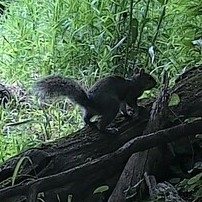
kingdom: Animalia
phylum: Chordata
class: Mammalia
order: Rodentia
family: Sciuridae
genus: Sciurus
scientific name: Sciurus carolinensis
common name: Eastern gray squirrel
